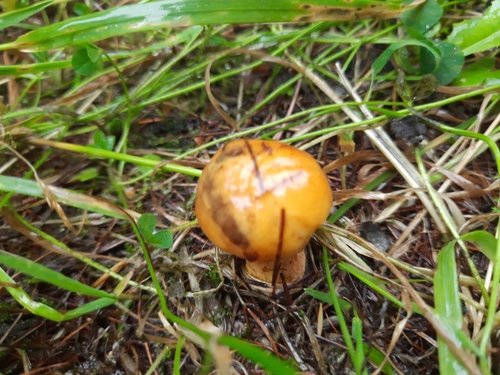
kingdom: Fungi
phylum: Basidiomycota
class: Agaricomycetes
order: Boletales
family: Suillaceae
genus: Suillus
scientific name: Suillus grevillei
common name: Larch bolete
